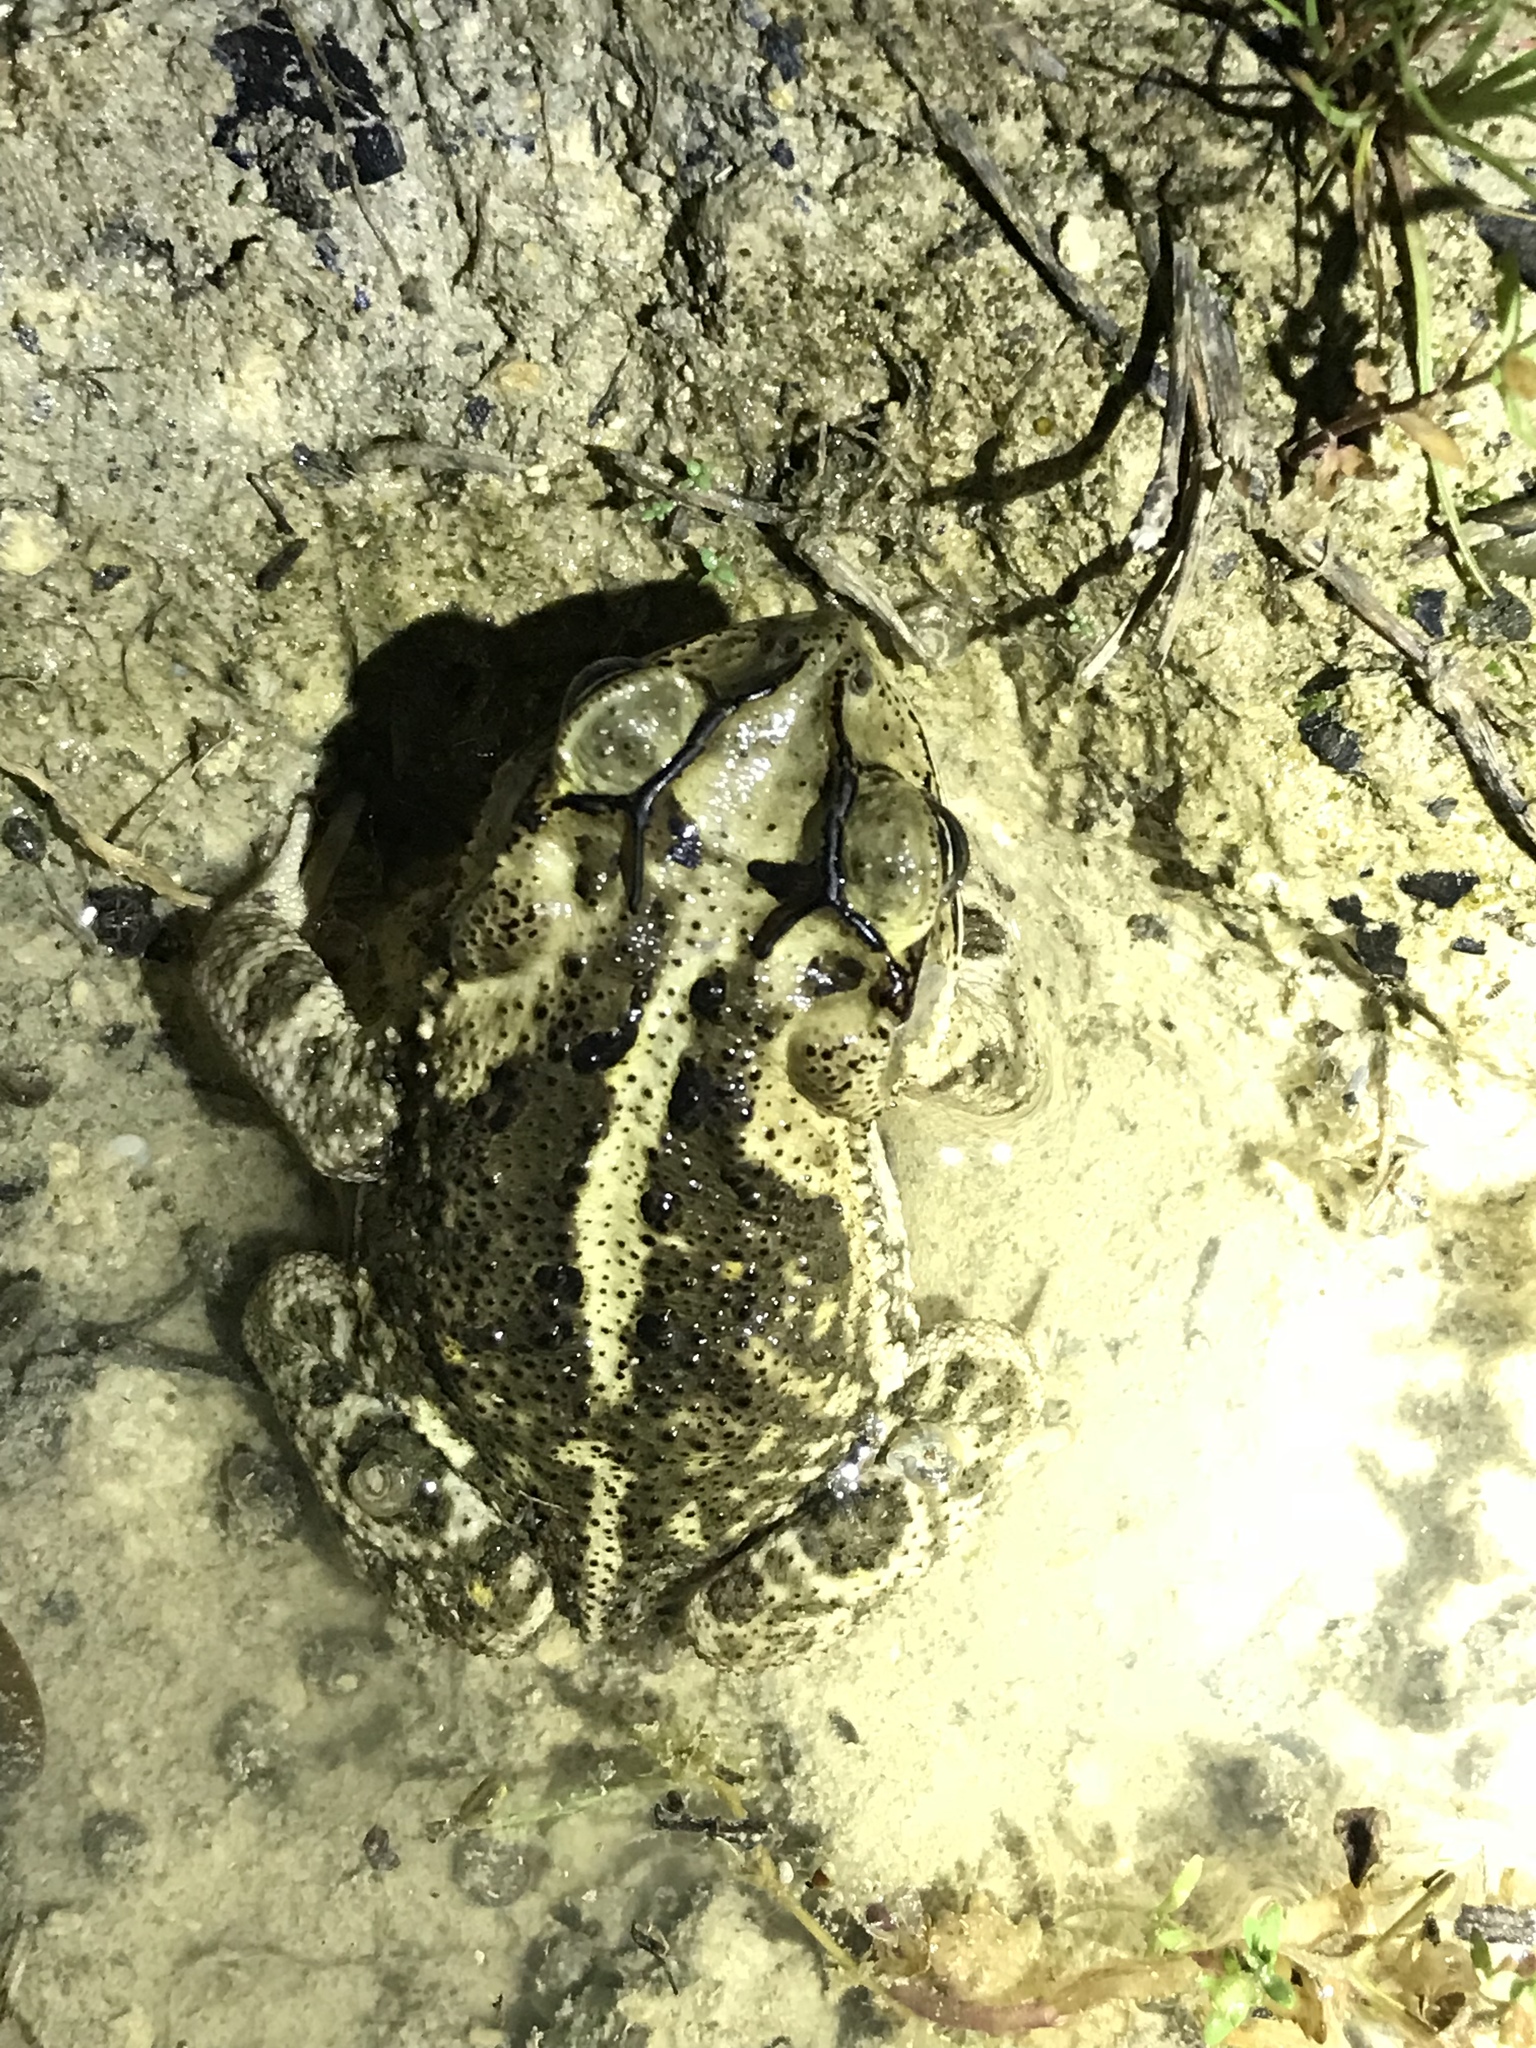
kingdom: Animalia
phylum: Chordata
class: Amphibia
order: Anura
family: Bufonidae
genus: Incilius
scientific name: Incilius nebulifer
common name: Gulf coast toad
